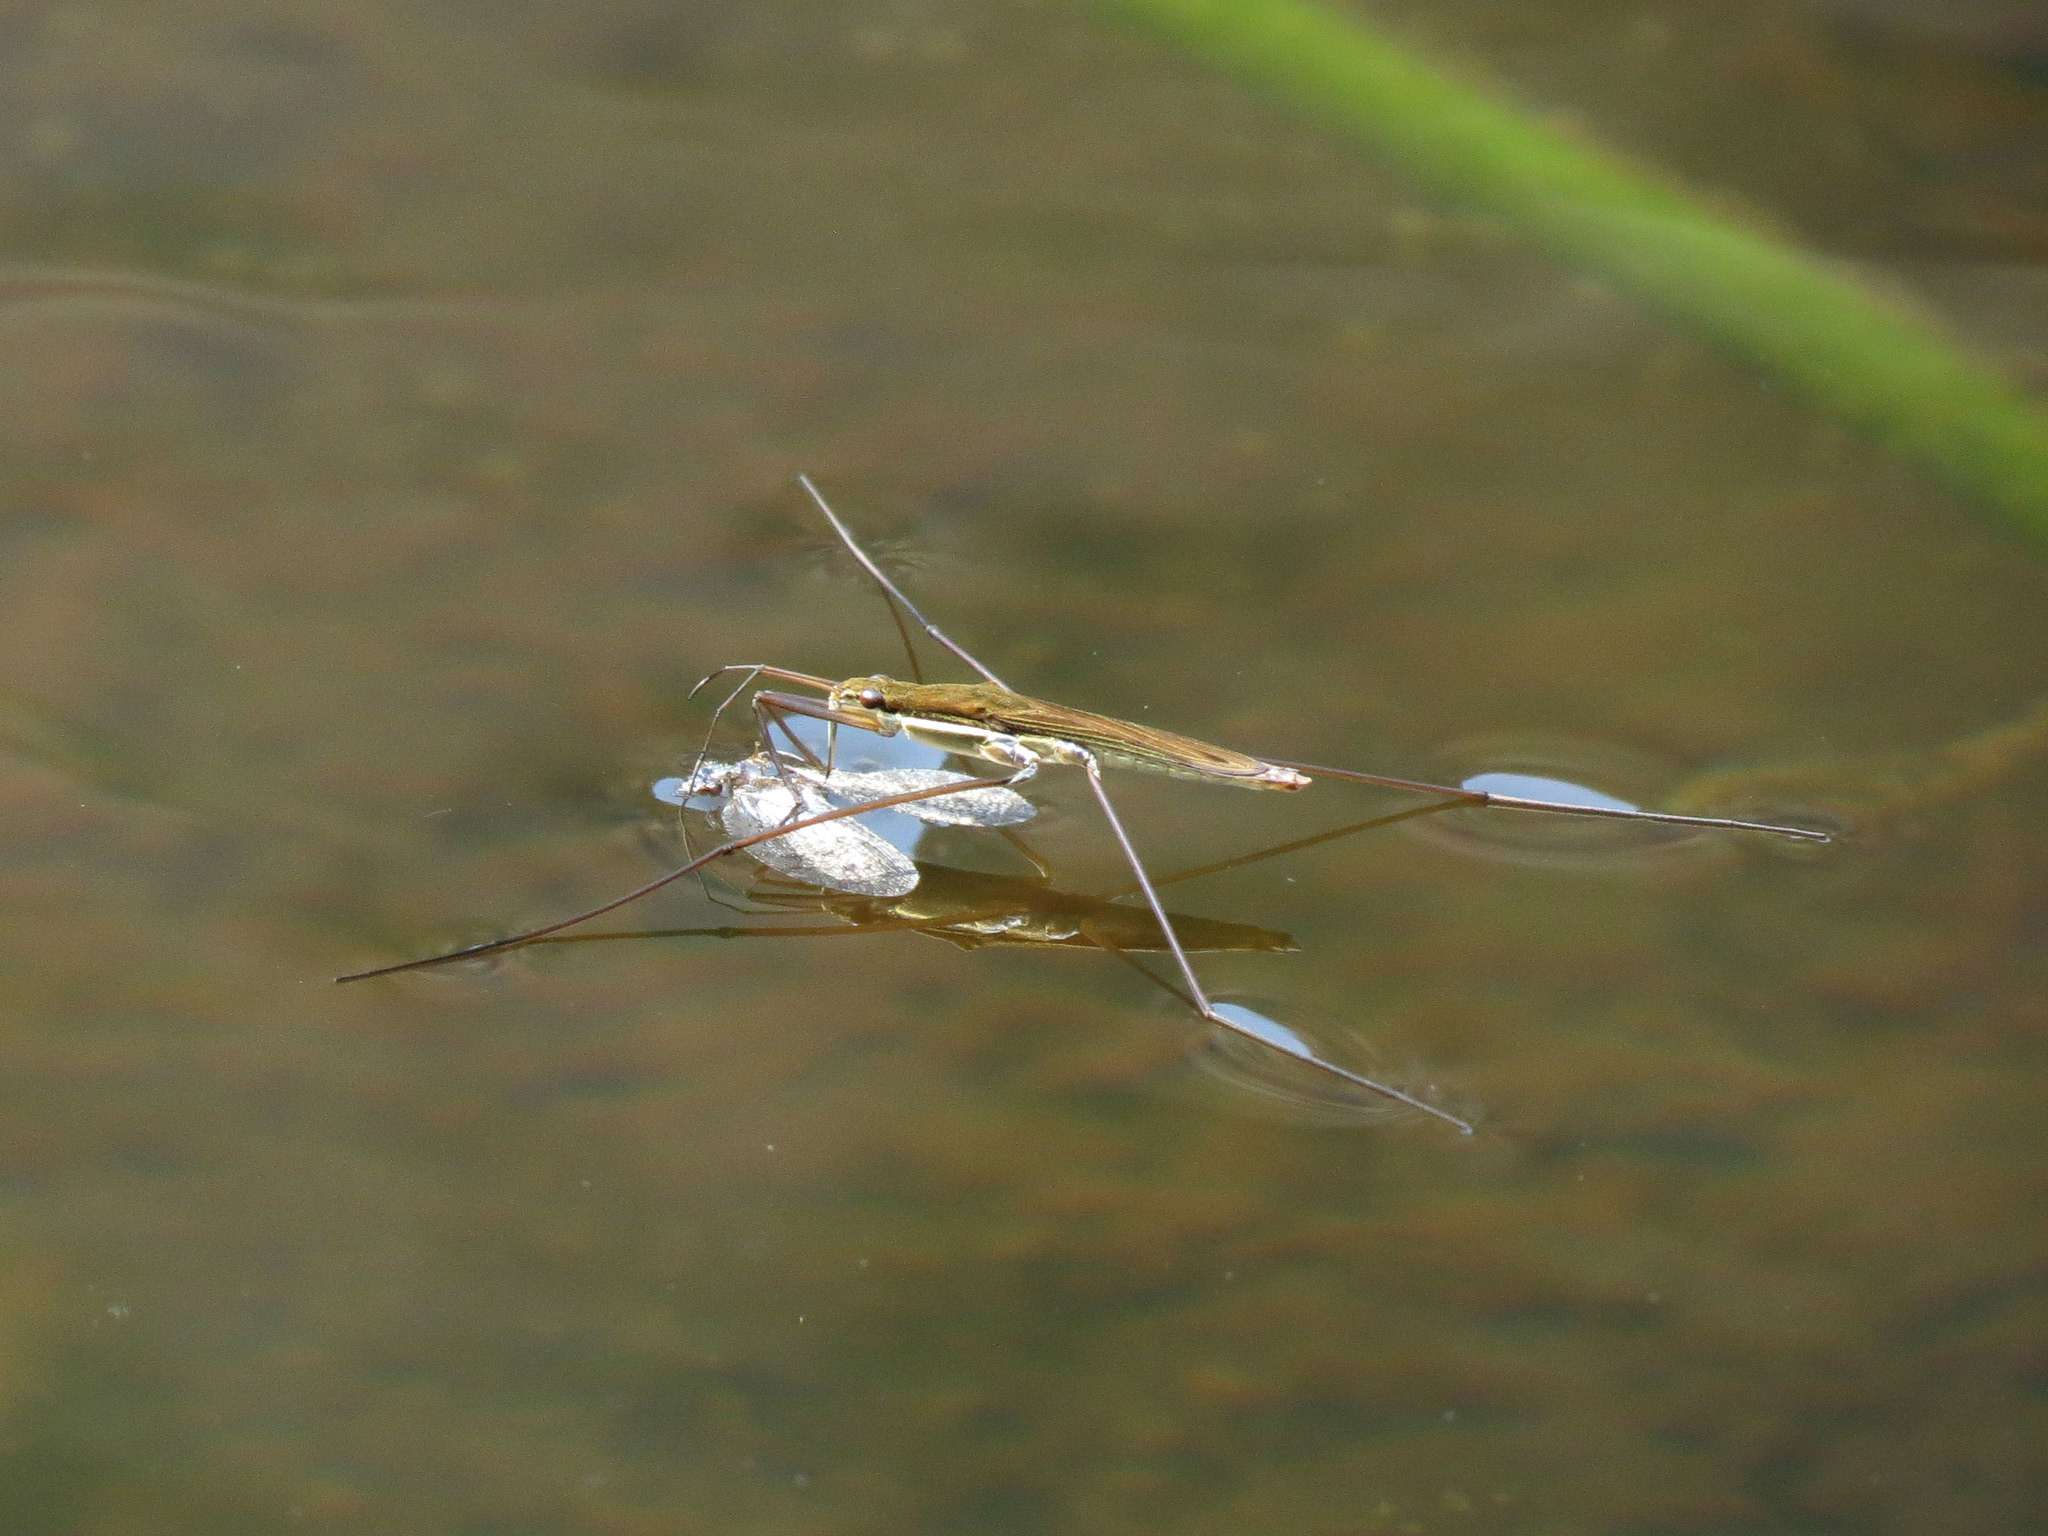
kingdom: Animalia
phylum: Arthropoda
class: Insecta
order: Hemiptera
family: Gerridae
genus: Limnoporus
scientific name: Limnoporus notabilis
